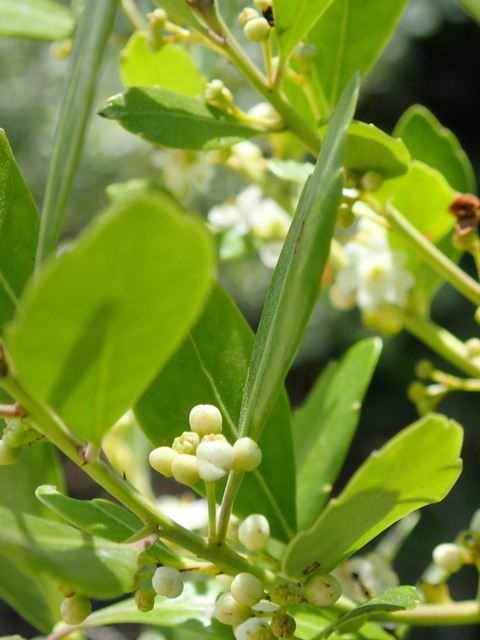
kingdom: Plantae
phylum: Tracheophyta
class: Magnoliopsida
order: Aquifoliales
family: Aquifoliaceae
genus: Ilex
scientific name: Ilex glabra
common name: Bitter gallberry
